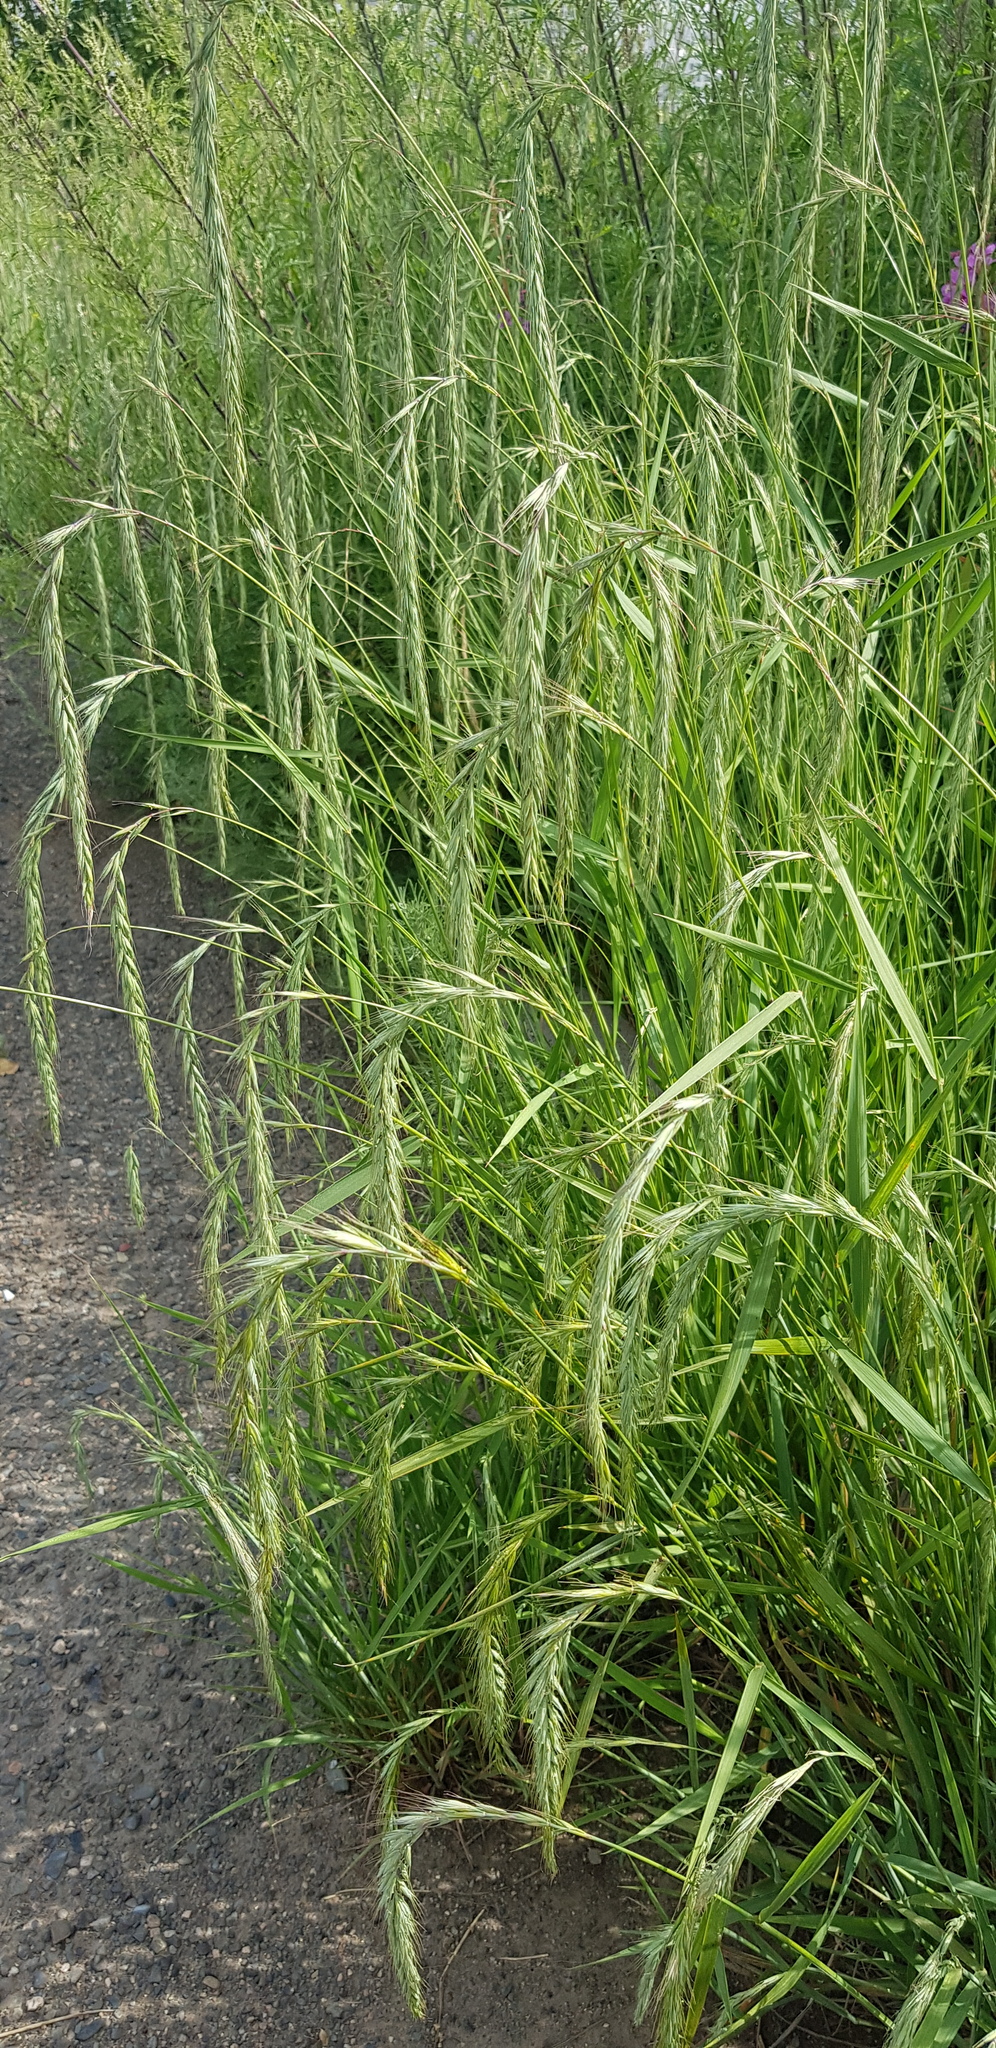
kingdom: Plantae
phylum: Tracheophyta
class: Liliopsida
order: Poales
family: Poaceae
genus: Elymus
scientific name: Elymus sibiricus
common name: Siberian wildrye
